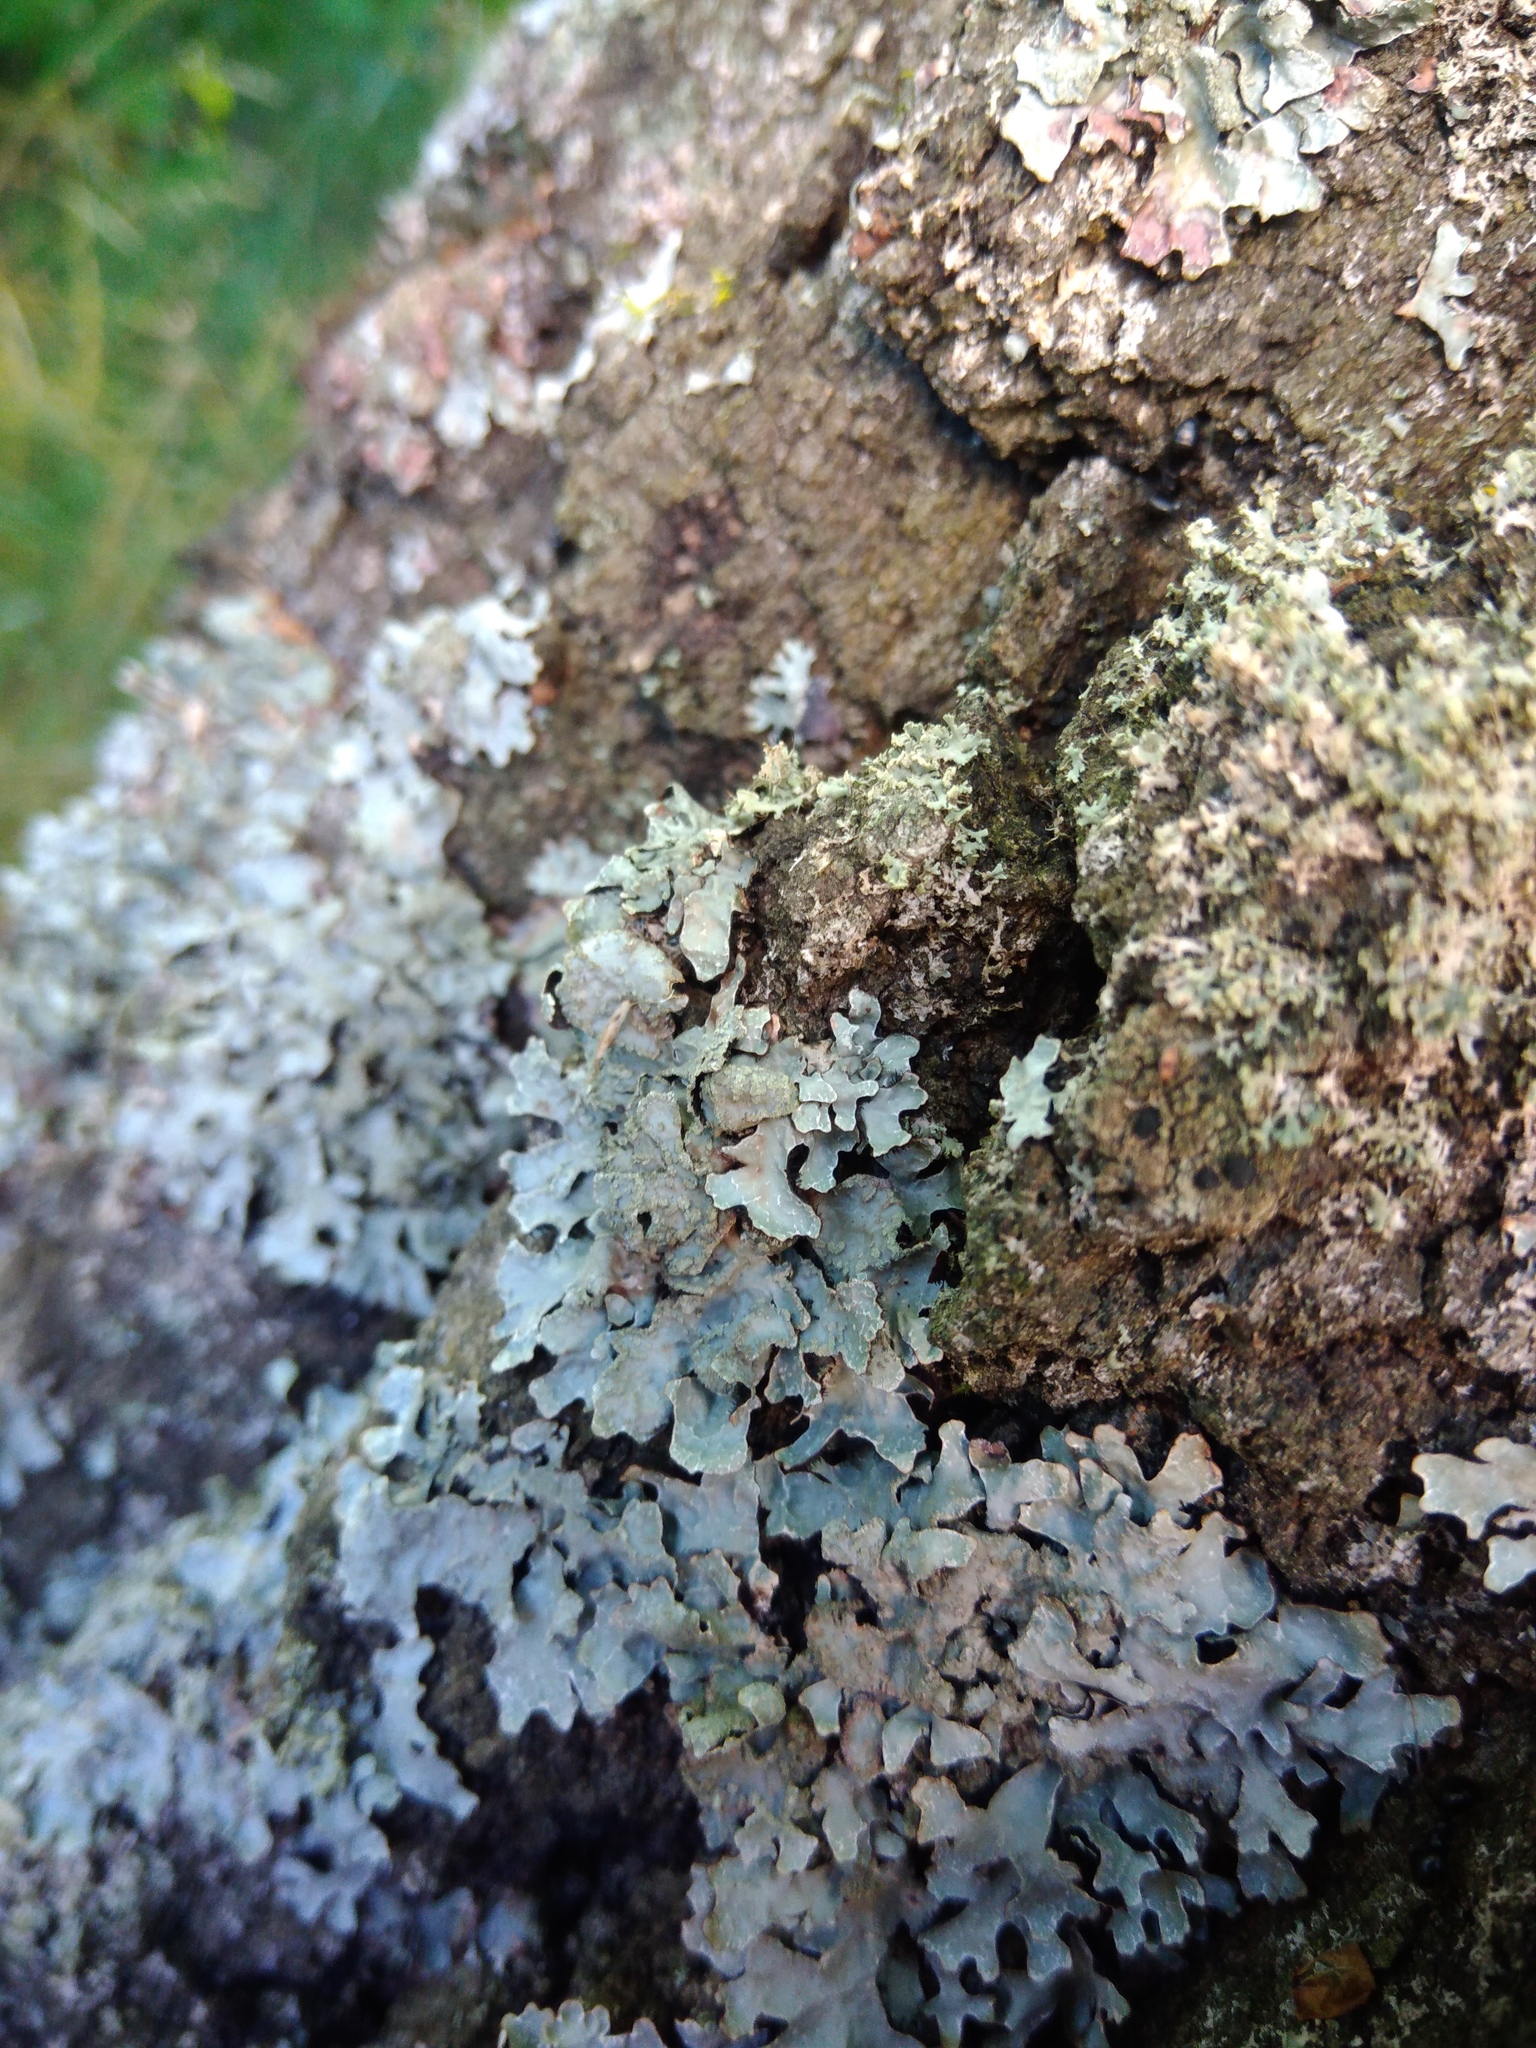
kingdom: Fungi
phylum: Ascomycota
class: Lecanoromycetes
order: Lecanorales
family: Parmeliaceae
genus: Parmelia
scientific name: Parmelia sulcata
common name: Netted shield lichen
